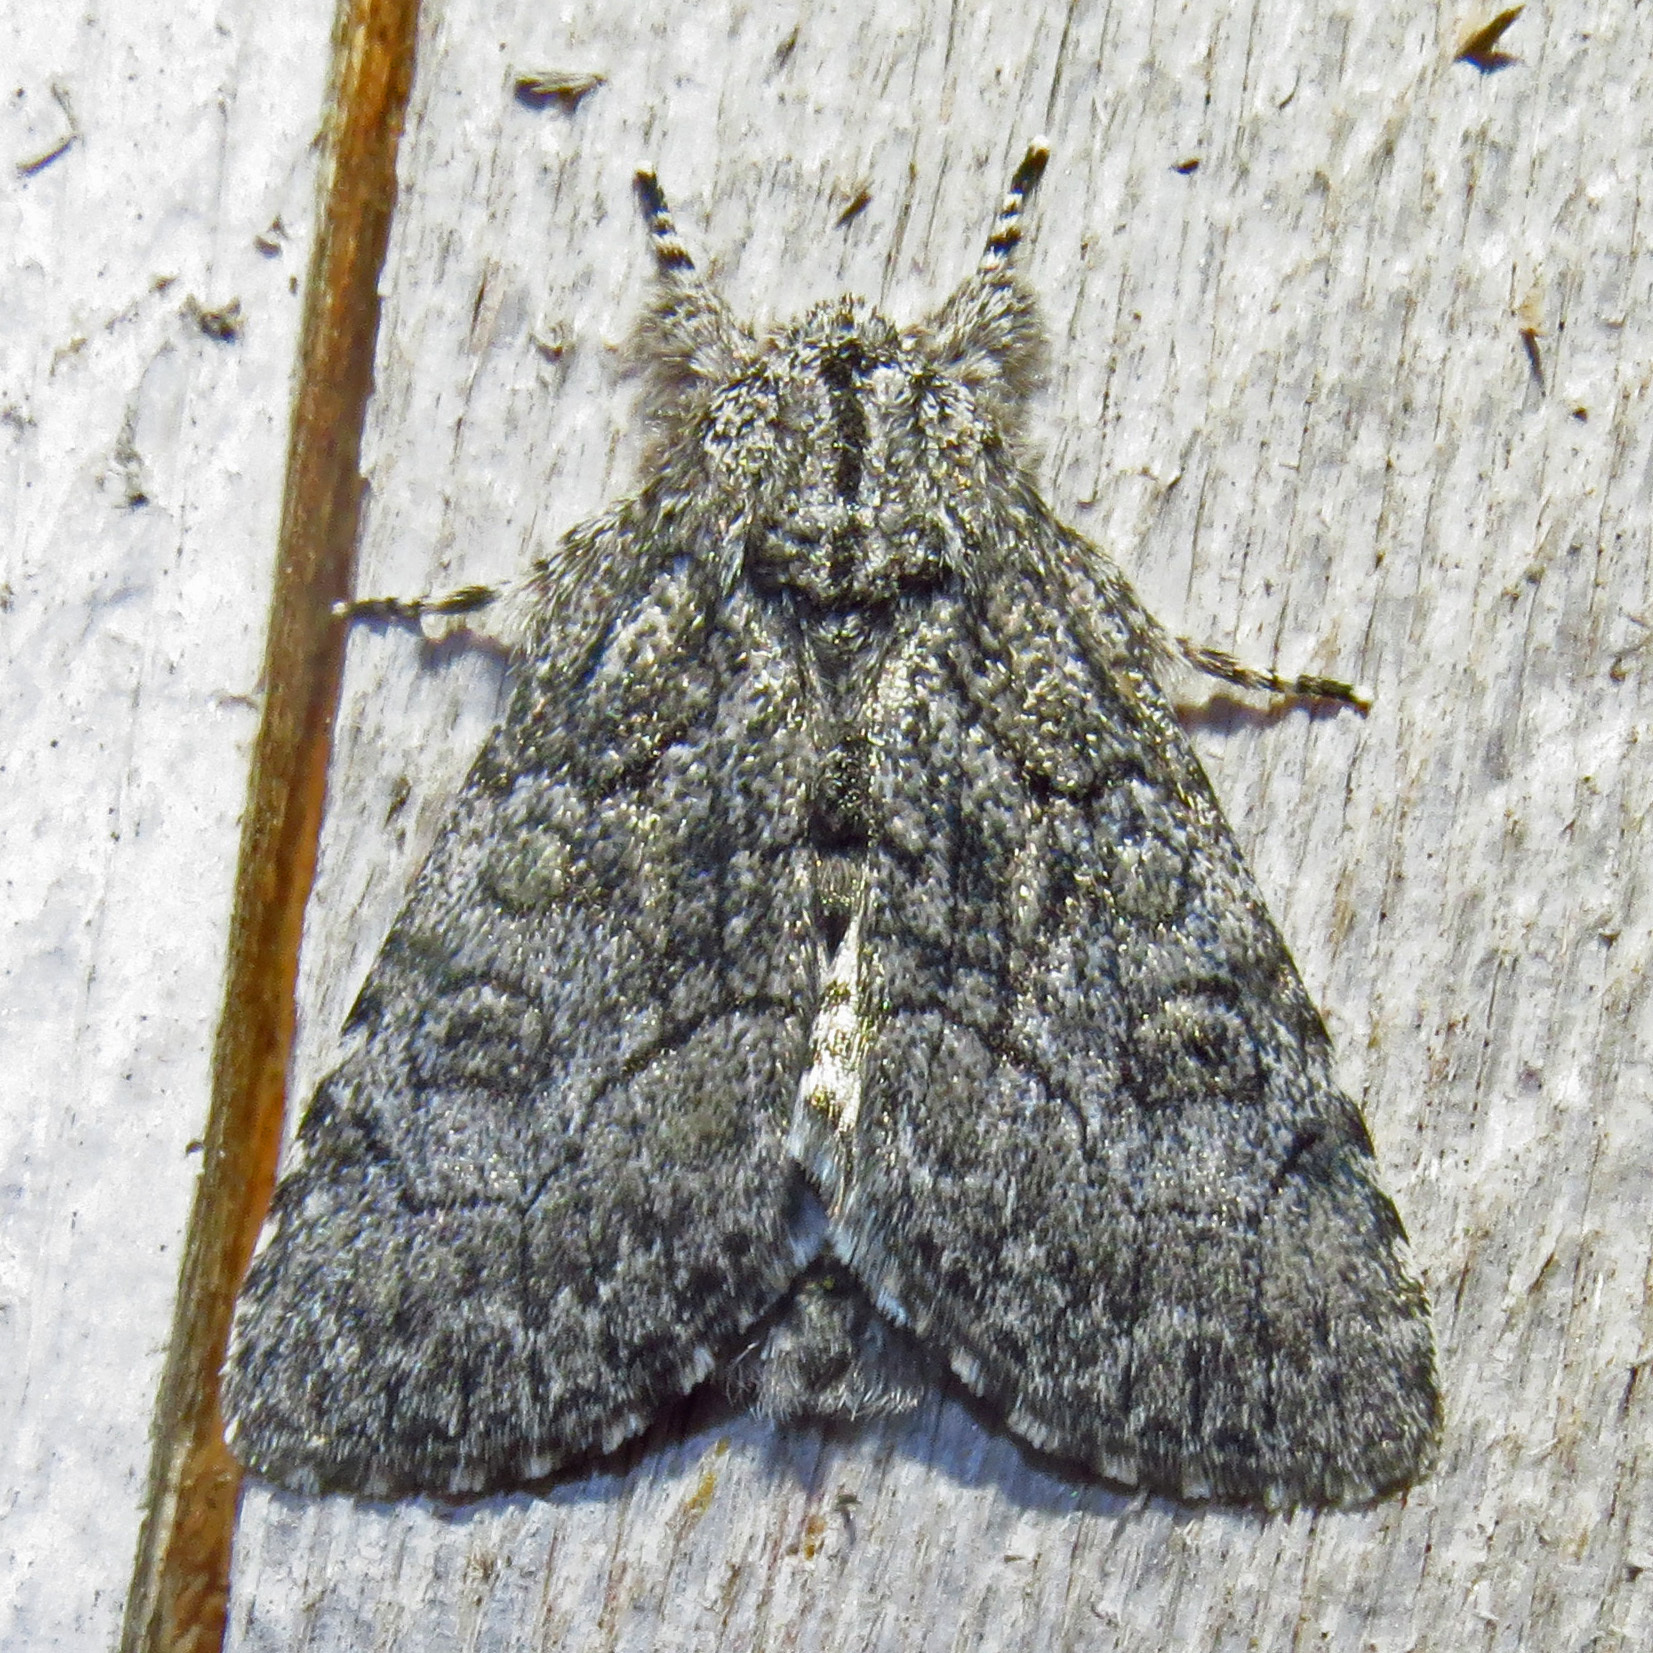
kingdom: Animalia
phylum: Arthropoda
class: Insecta
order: Lepidoptera
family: Noctuidae
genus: Raphia
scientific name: Raphia frater
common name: Brother
